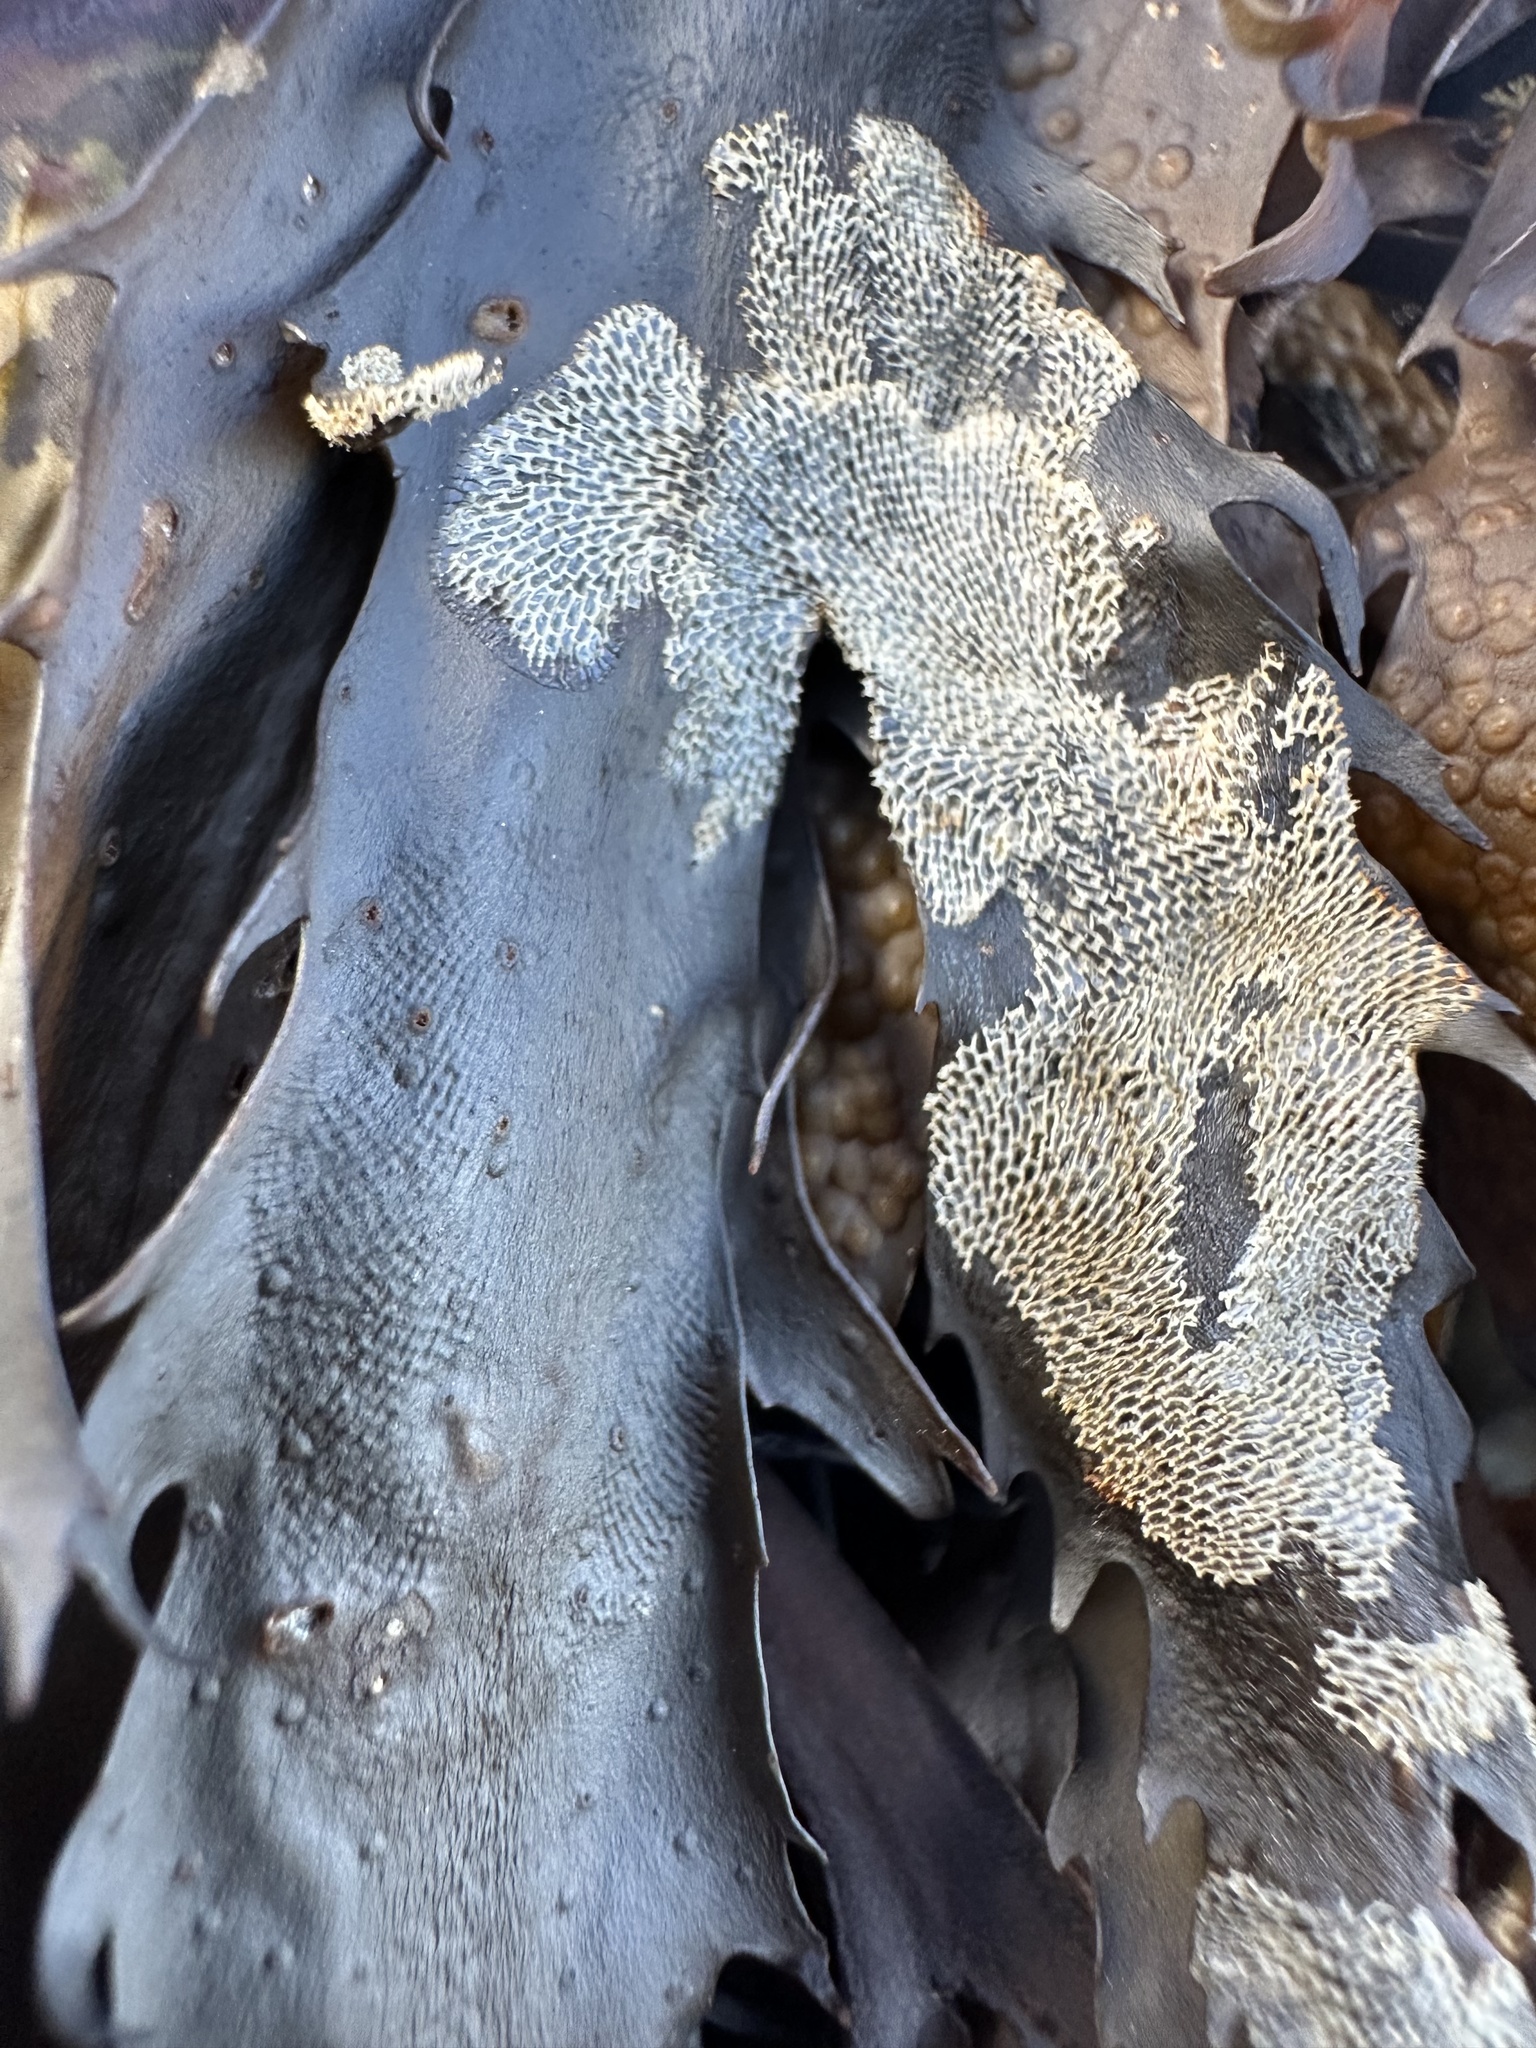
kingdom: Animalia
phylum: Bryozoa
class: Gymnolaemata
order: Cheilostomatida
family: Membraniporidae
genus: Membranipora
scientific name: Membranipora membranacea
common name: Sea mat
